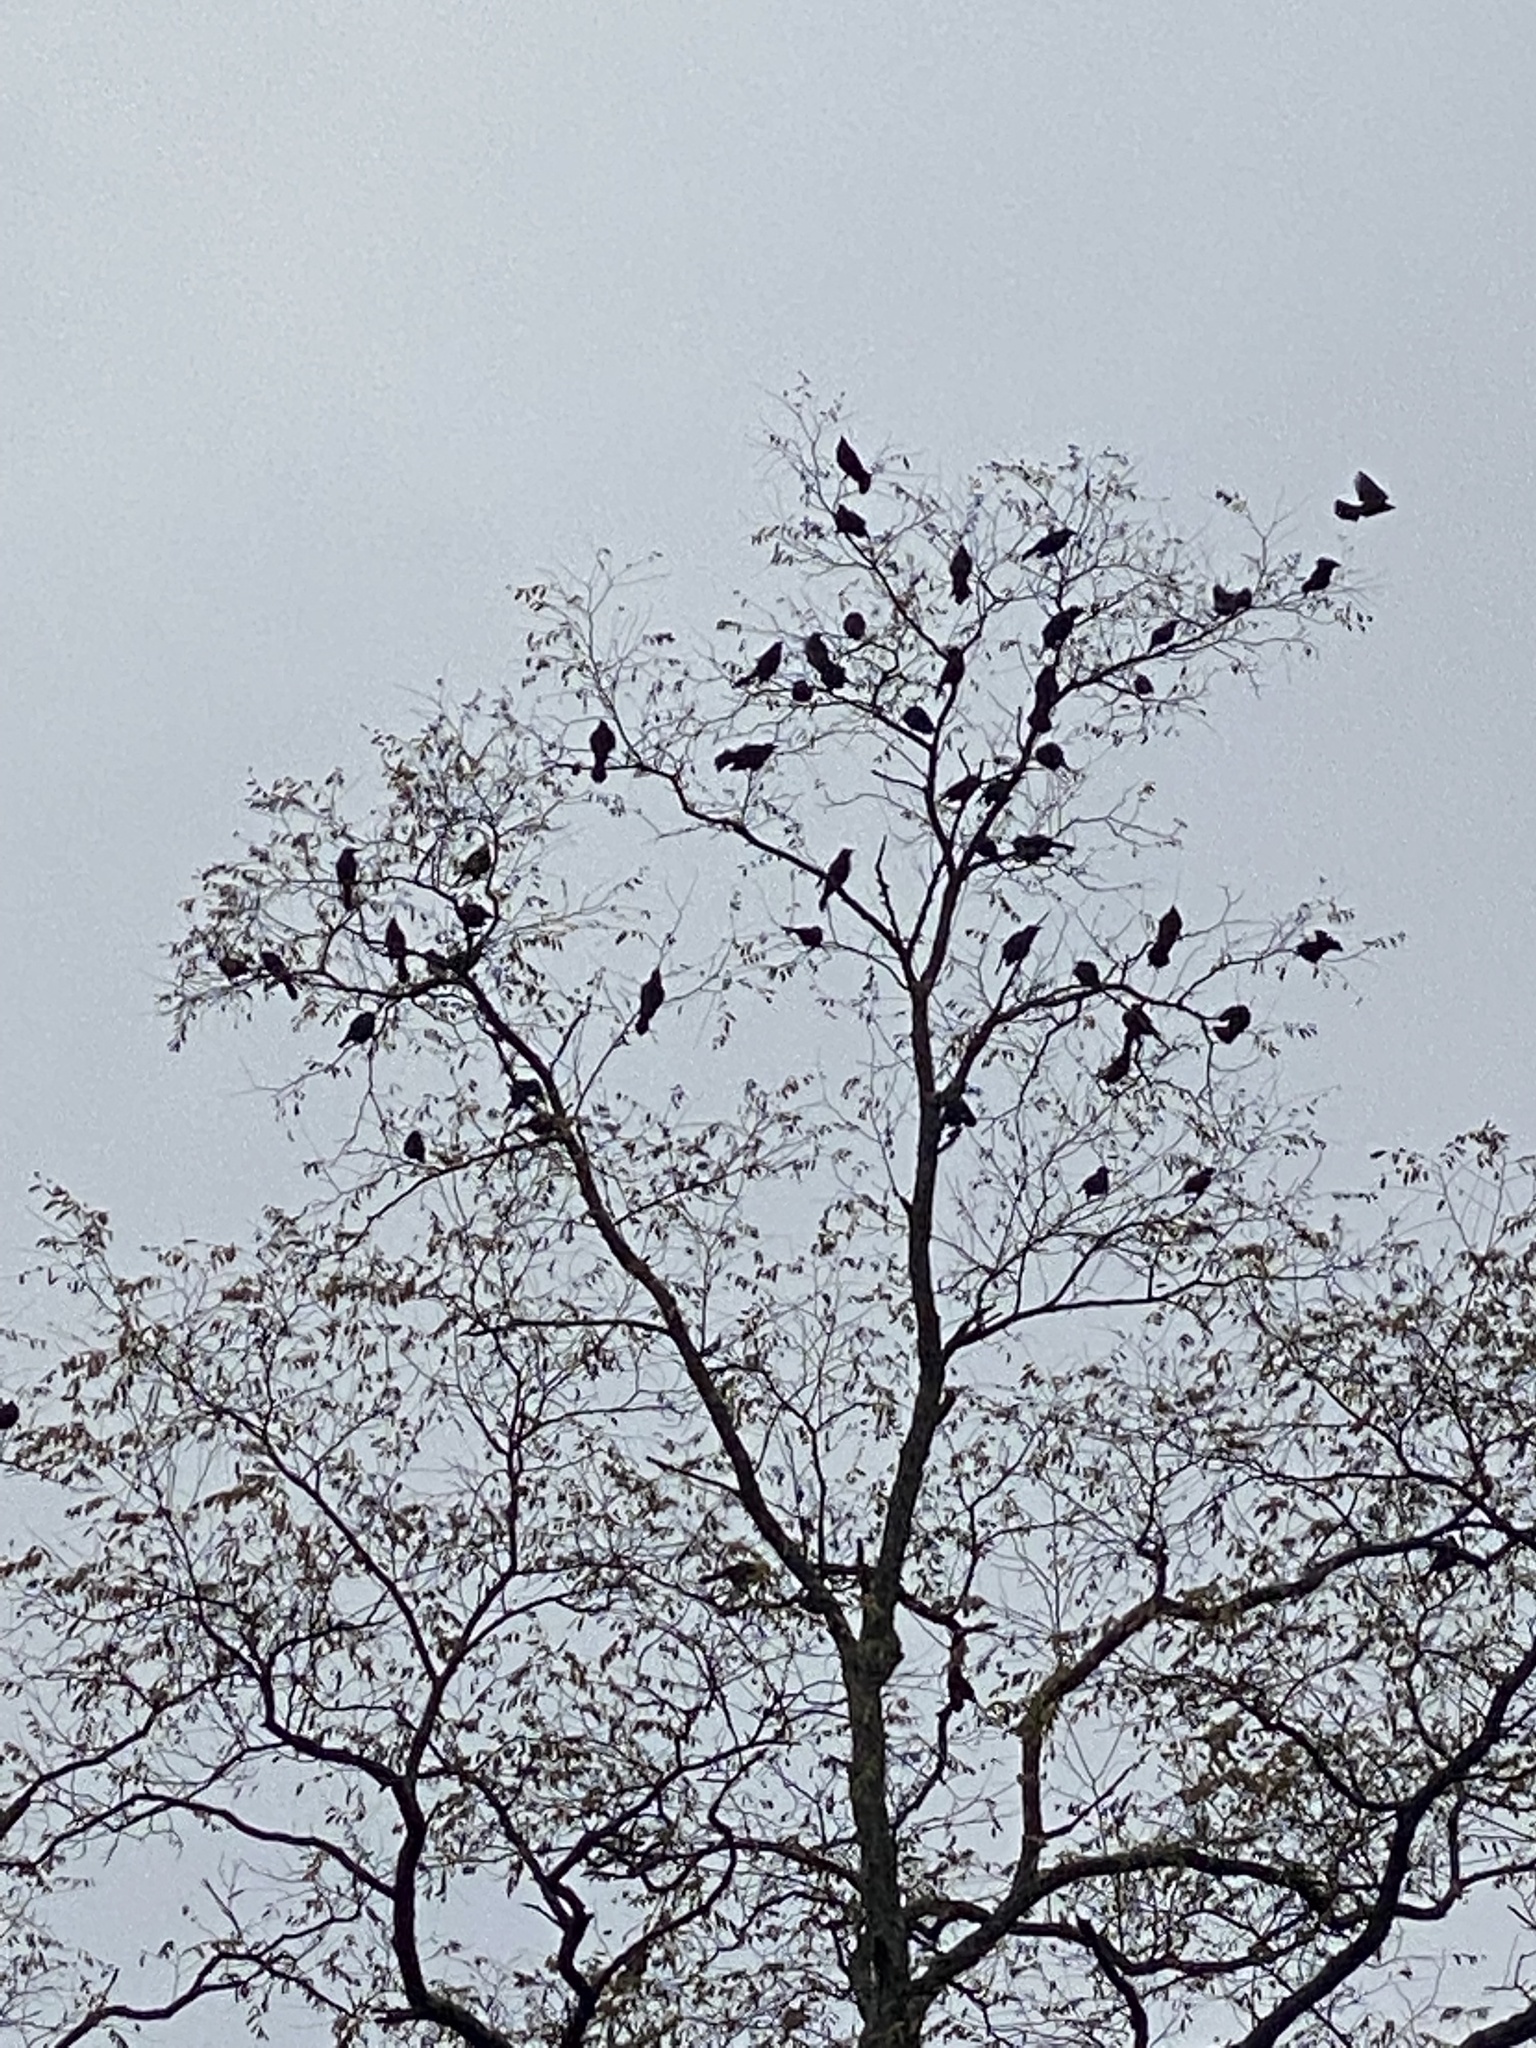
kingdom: Animalia
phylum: Chordata
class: Aves
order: Passeriformes
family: Icteridae
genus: Quiscalus
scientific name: Quiscalus quiscula
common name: Common grackle
